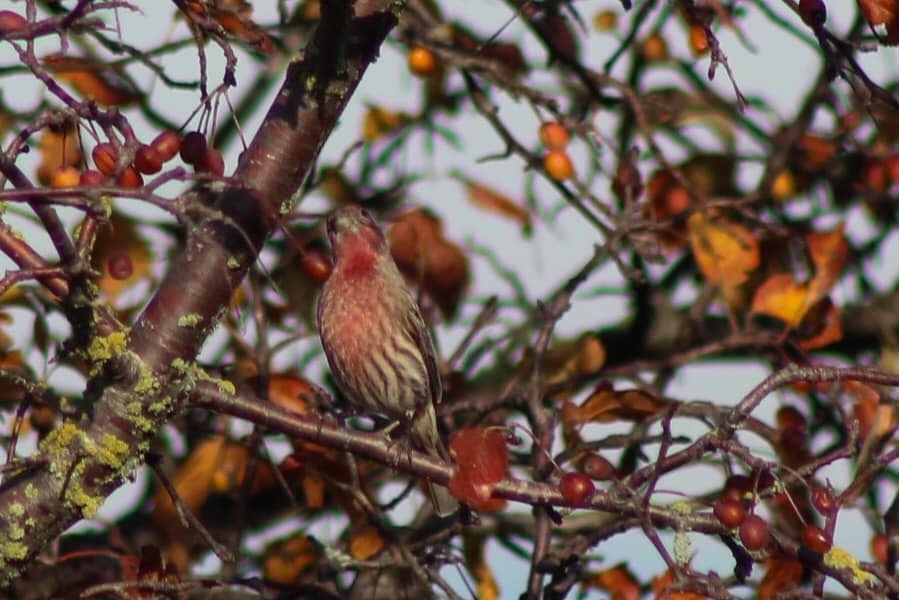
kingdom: Animalia
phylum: Chordata
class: Aves
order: Passeriformes
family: Fringillidae
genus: Haemorhous
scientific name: Haemorhous mexicanus
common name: House finch
